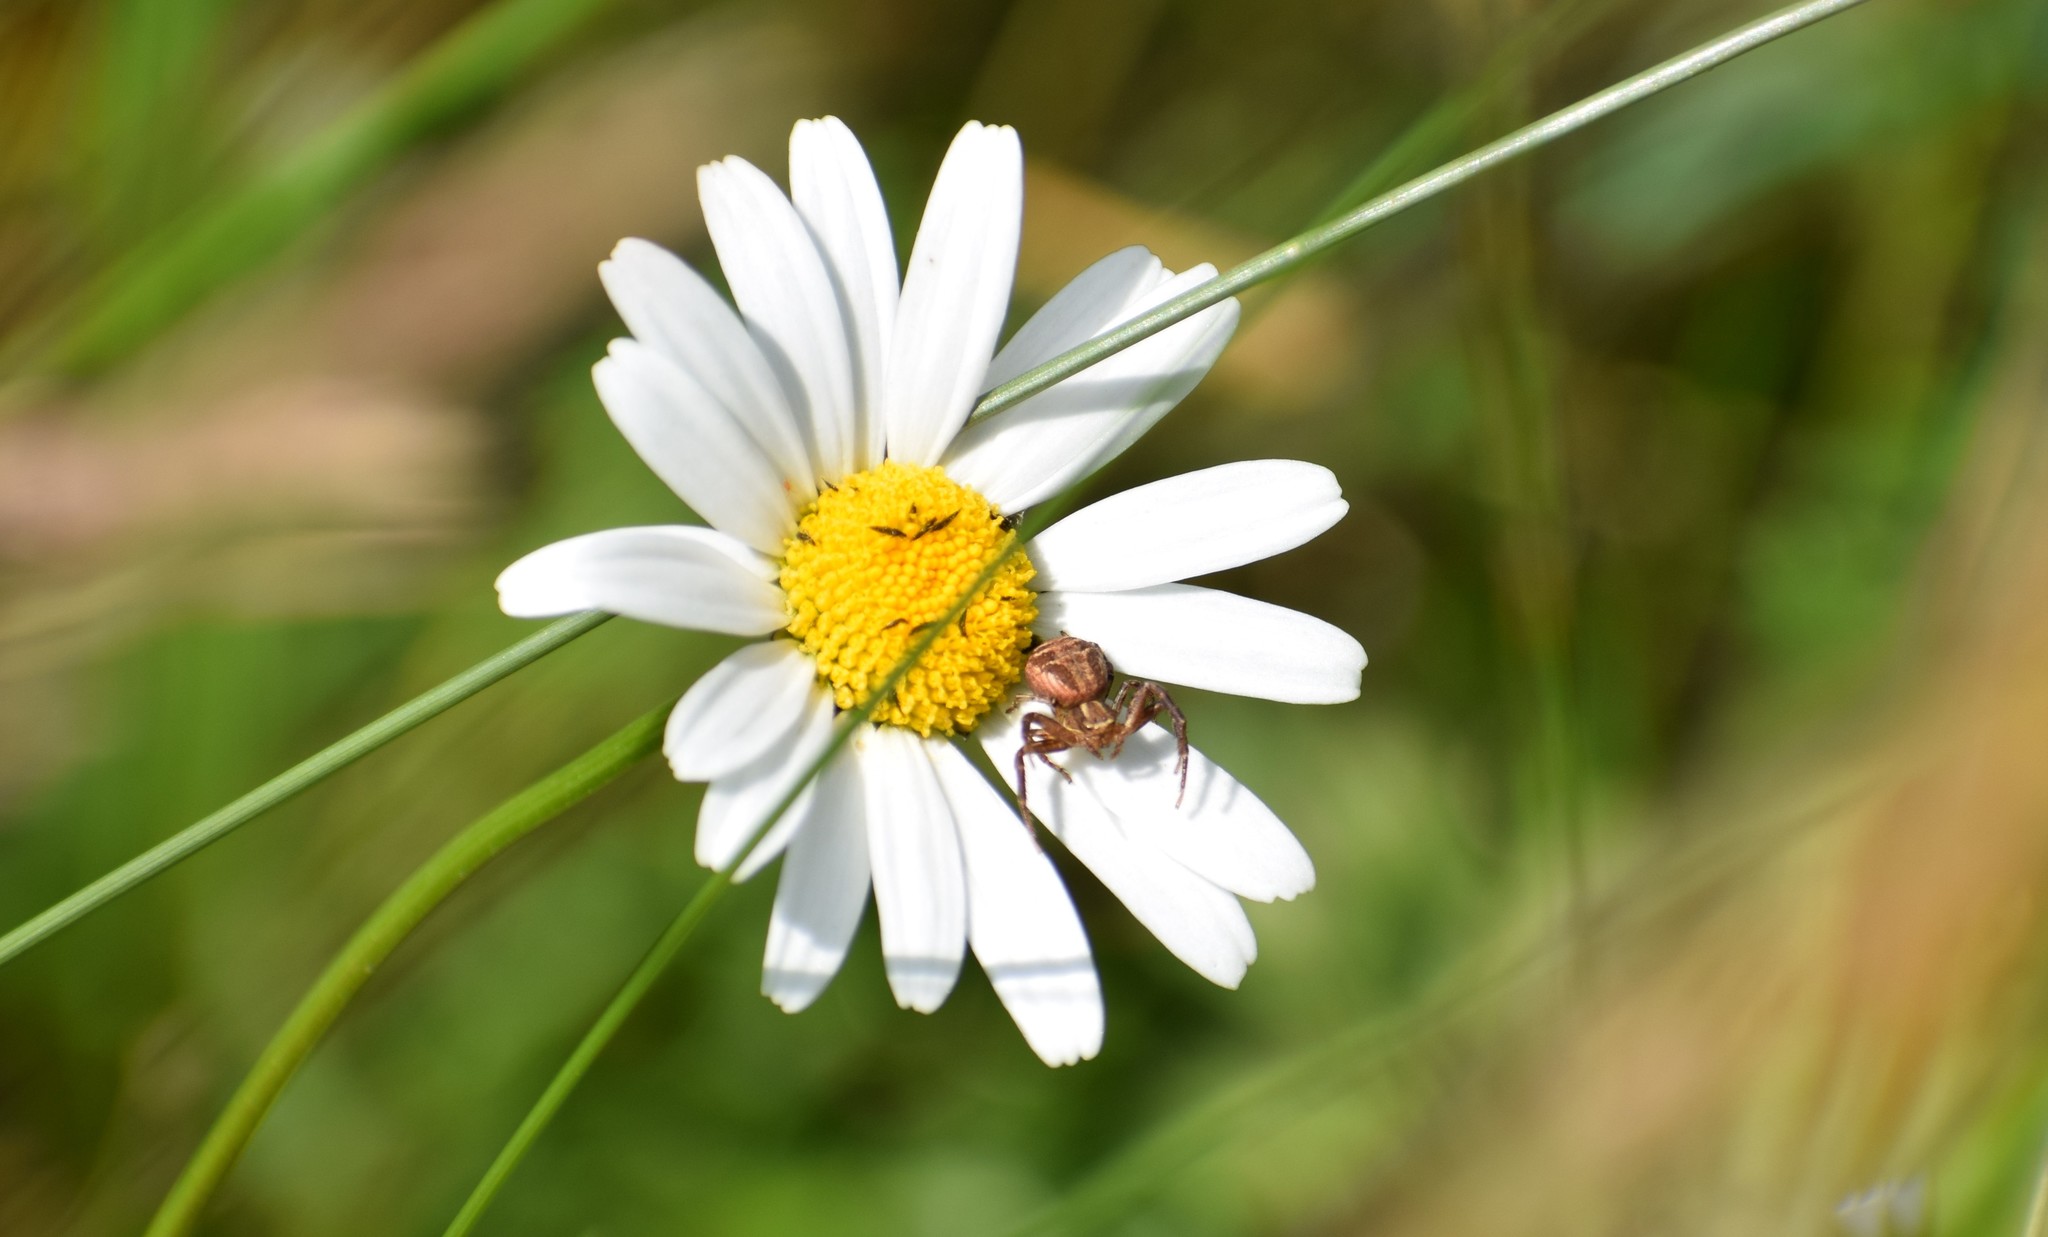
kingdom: Plantae
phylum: Tracheophyta
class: Magnoliopsida
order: Asterales
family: Asteraceae
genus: Leucanthemum
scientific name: Leucanthemum vulgare
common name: Oxeye daisy
